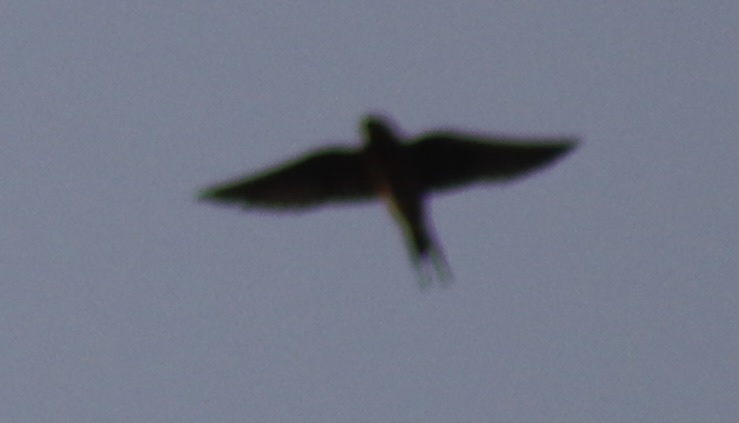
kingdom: Animalia
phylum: Chordata
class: Aves
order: Passeriformes
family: Hirundinidae
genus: Hirundo
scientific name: Hirundo rustica
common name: Barn swallow
